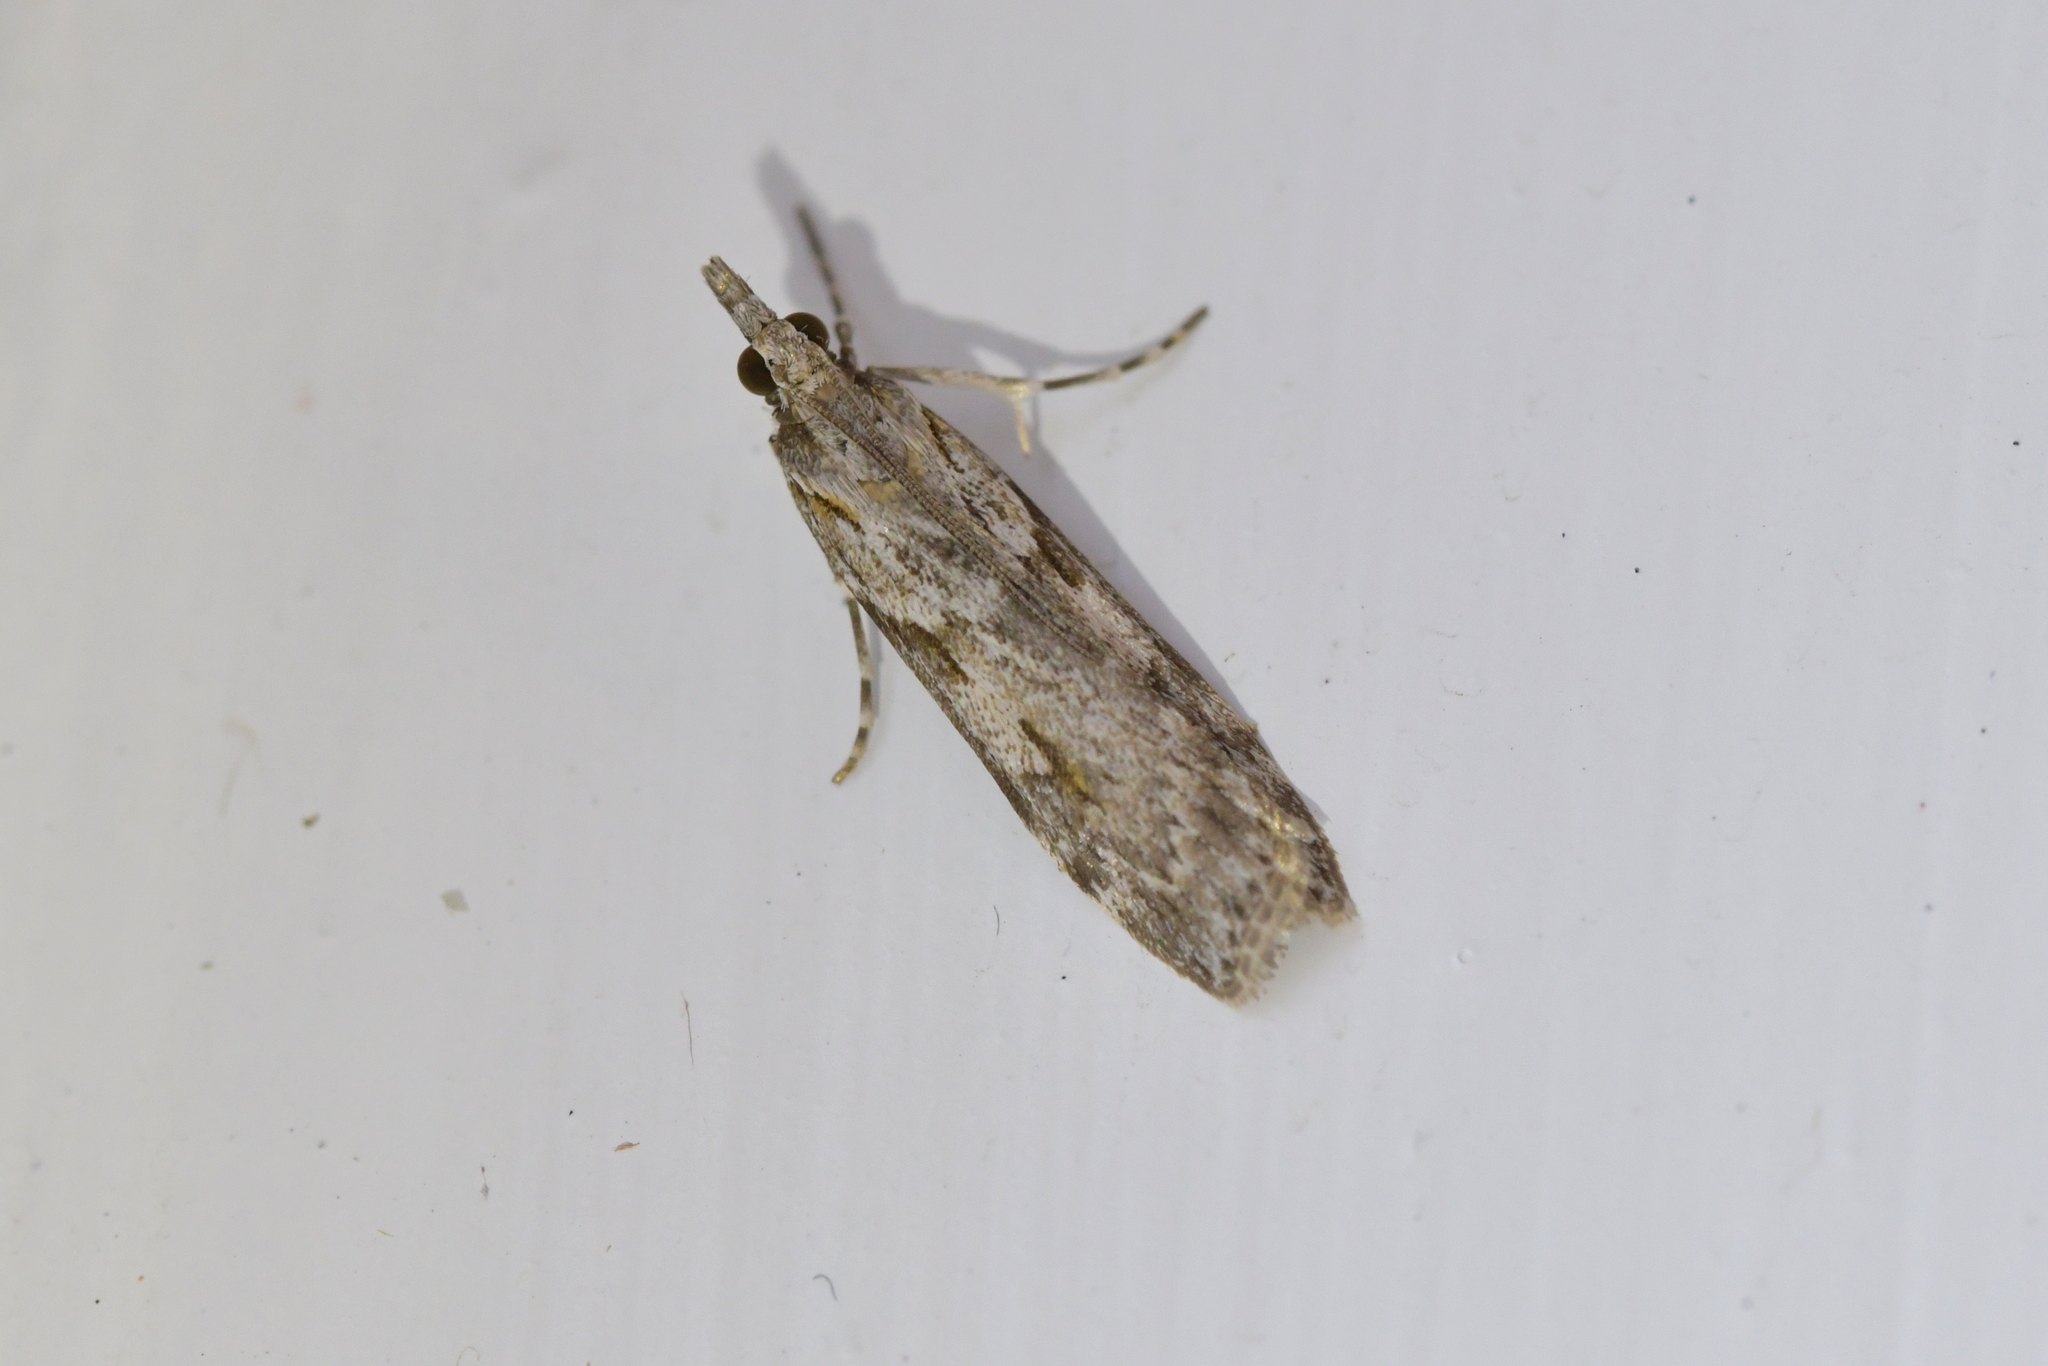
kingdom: Animalia
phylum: Arthropoda
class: Insecta
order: Lepidoptera
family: Crambidae
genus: Scoparia
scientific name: Scoparia halopis
